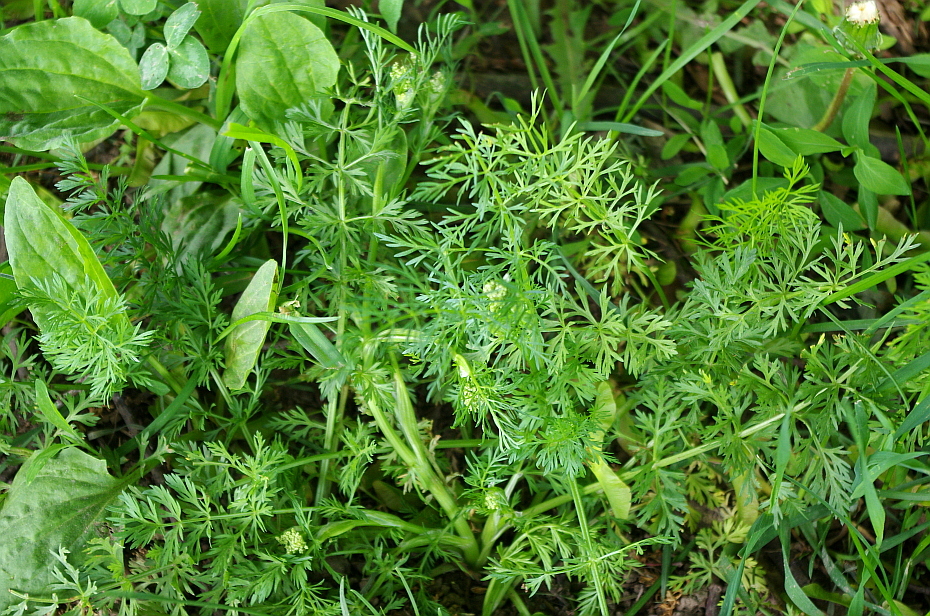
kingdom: Plantae
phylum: Tracheophyta
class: Magnoliopsida
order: Apiales
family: Apiaceae
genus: Carum
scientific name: Carum carvi
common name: Caraway
